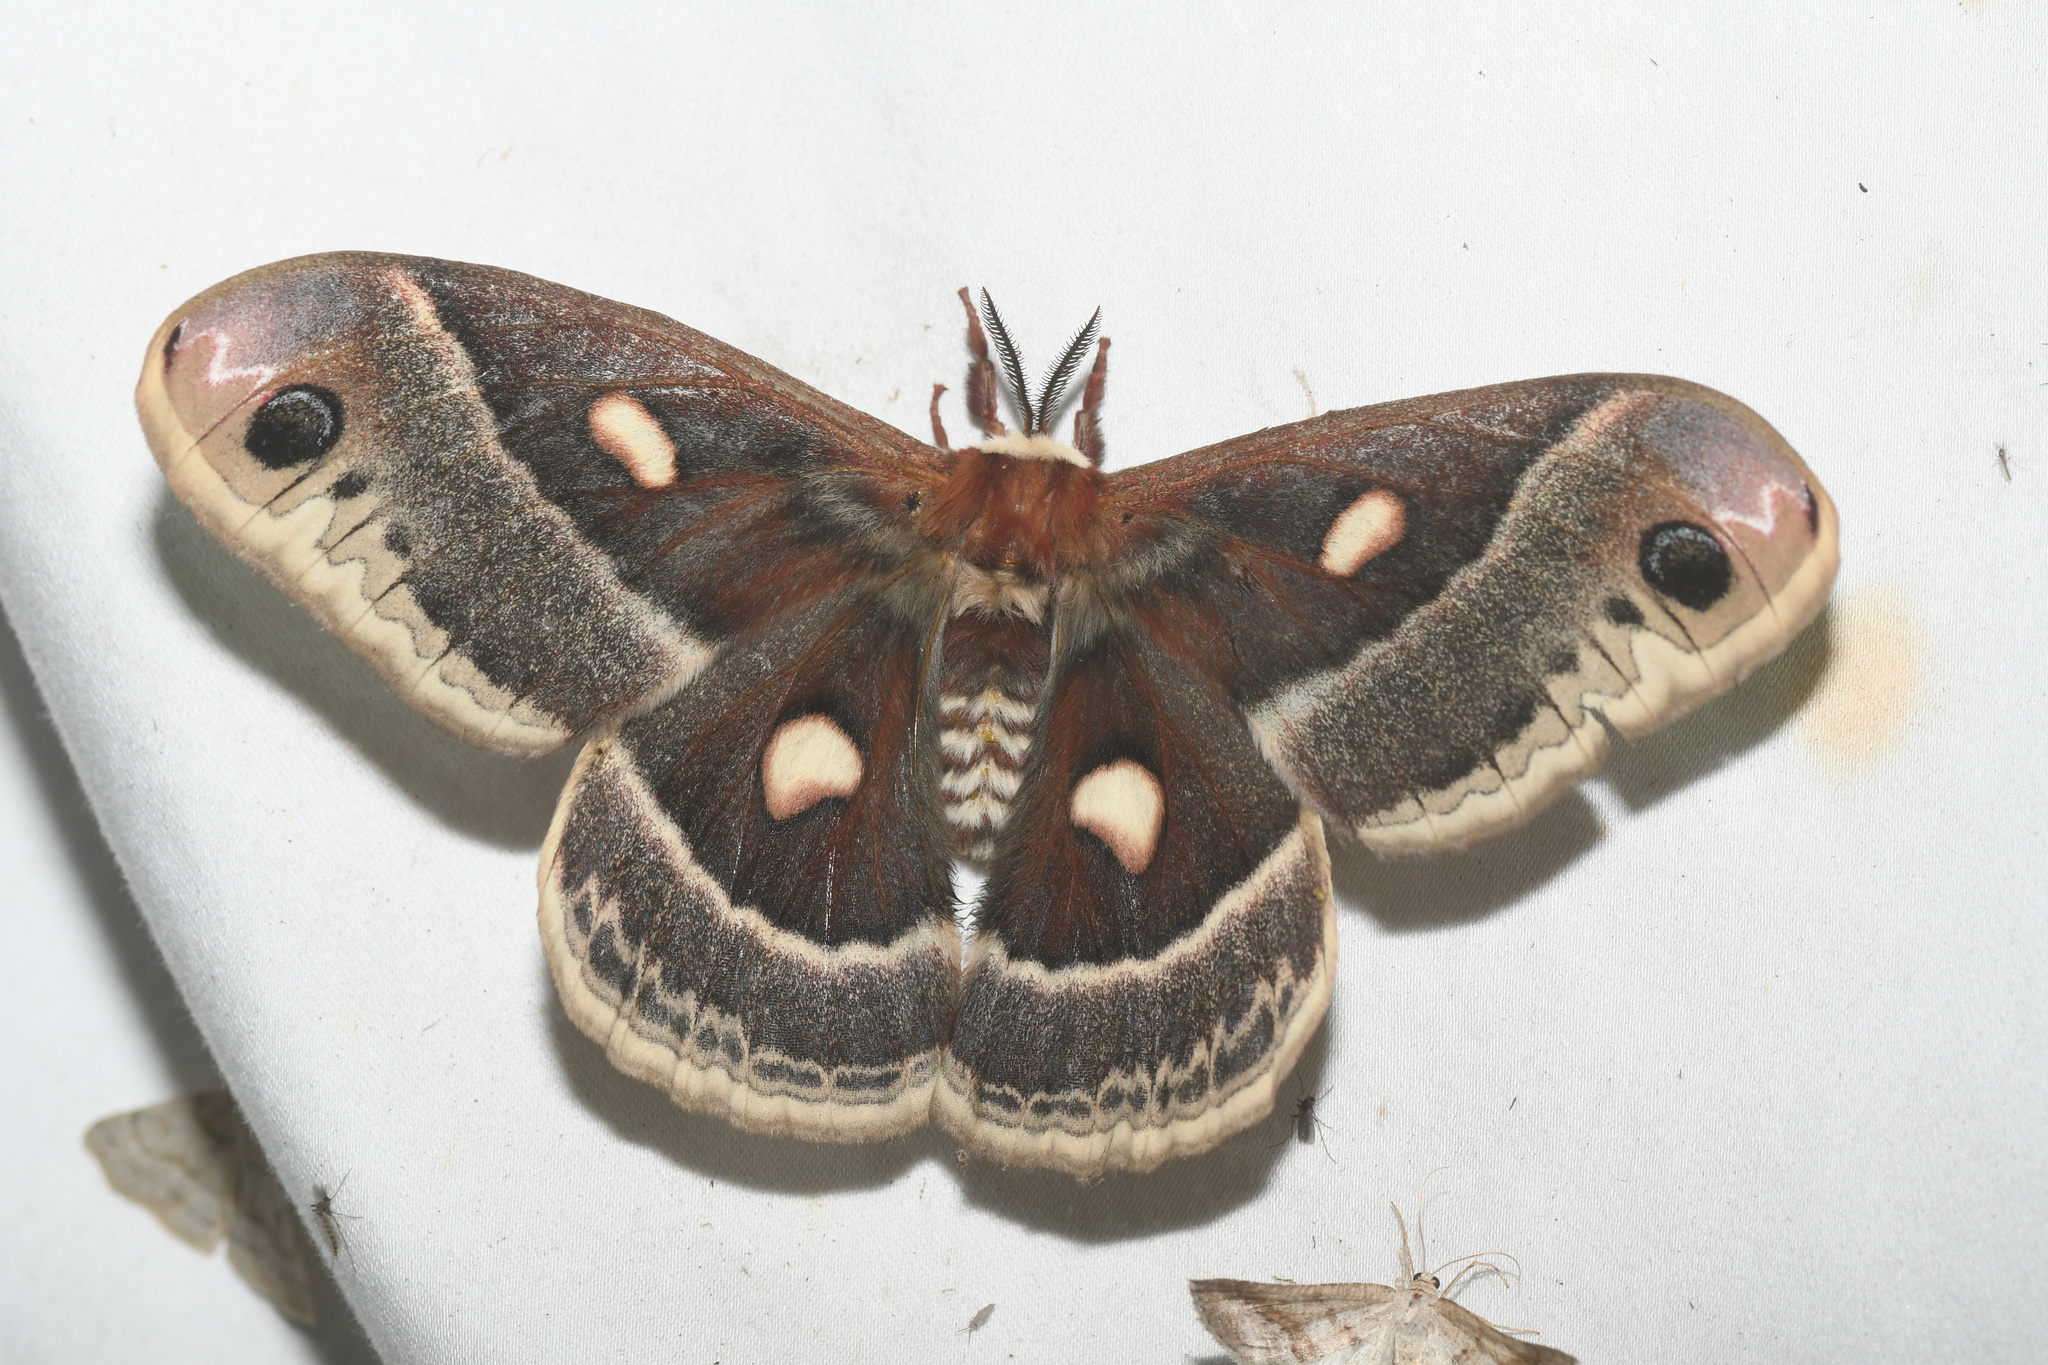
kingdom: Animalia
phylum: Arthropoda
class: Insecta
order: Lepidoptera
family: Saturniidae
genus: Hyalophora
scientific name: Hyalophora columbia
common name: Columbia silkmoth
